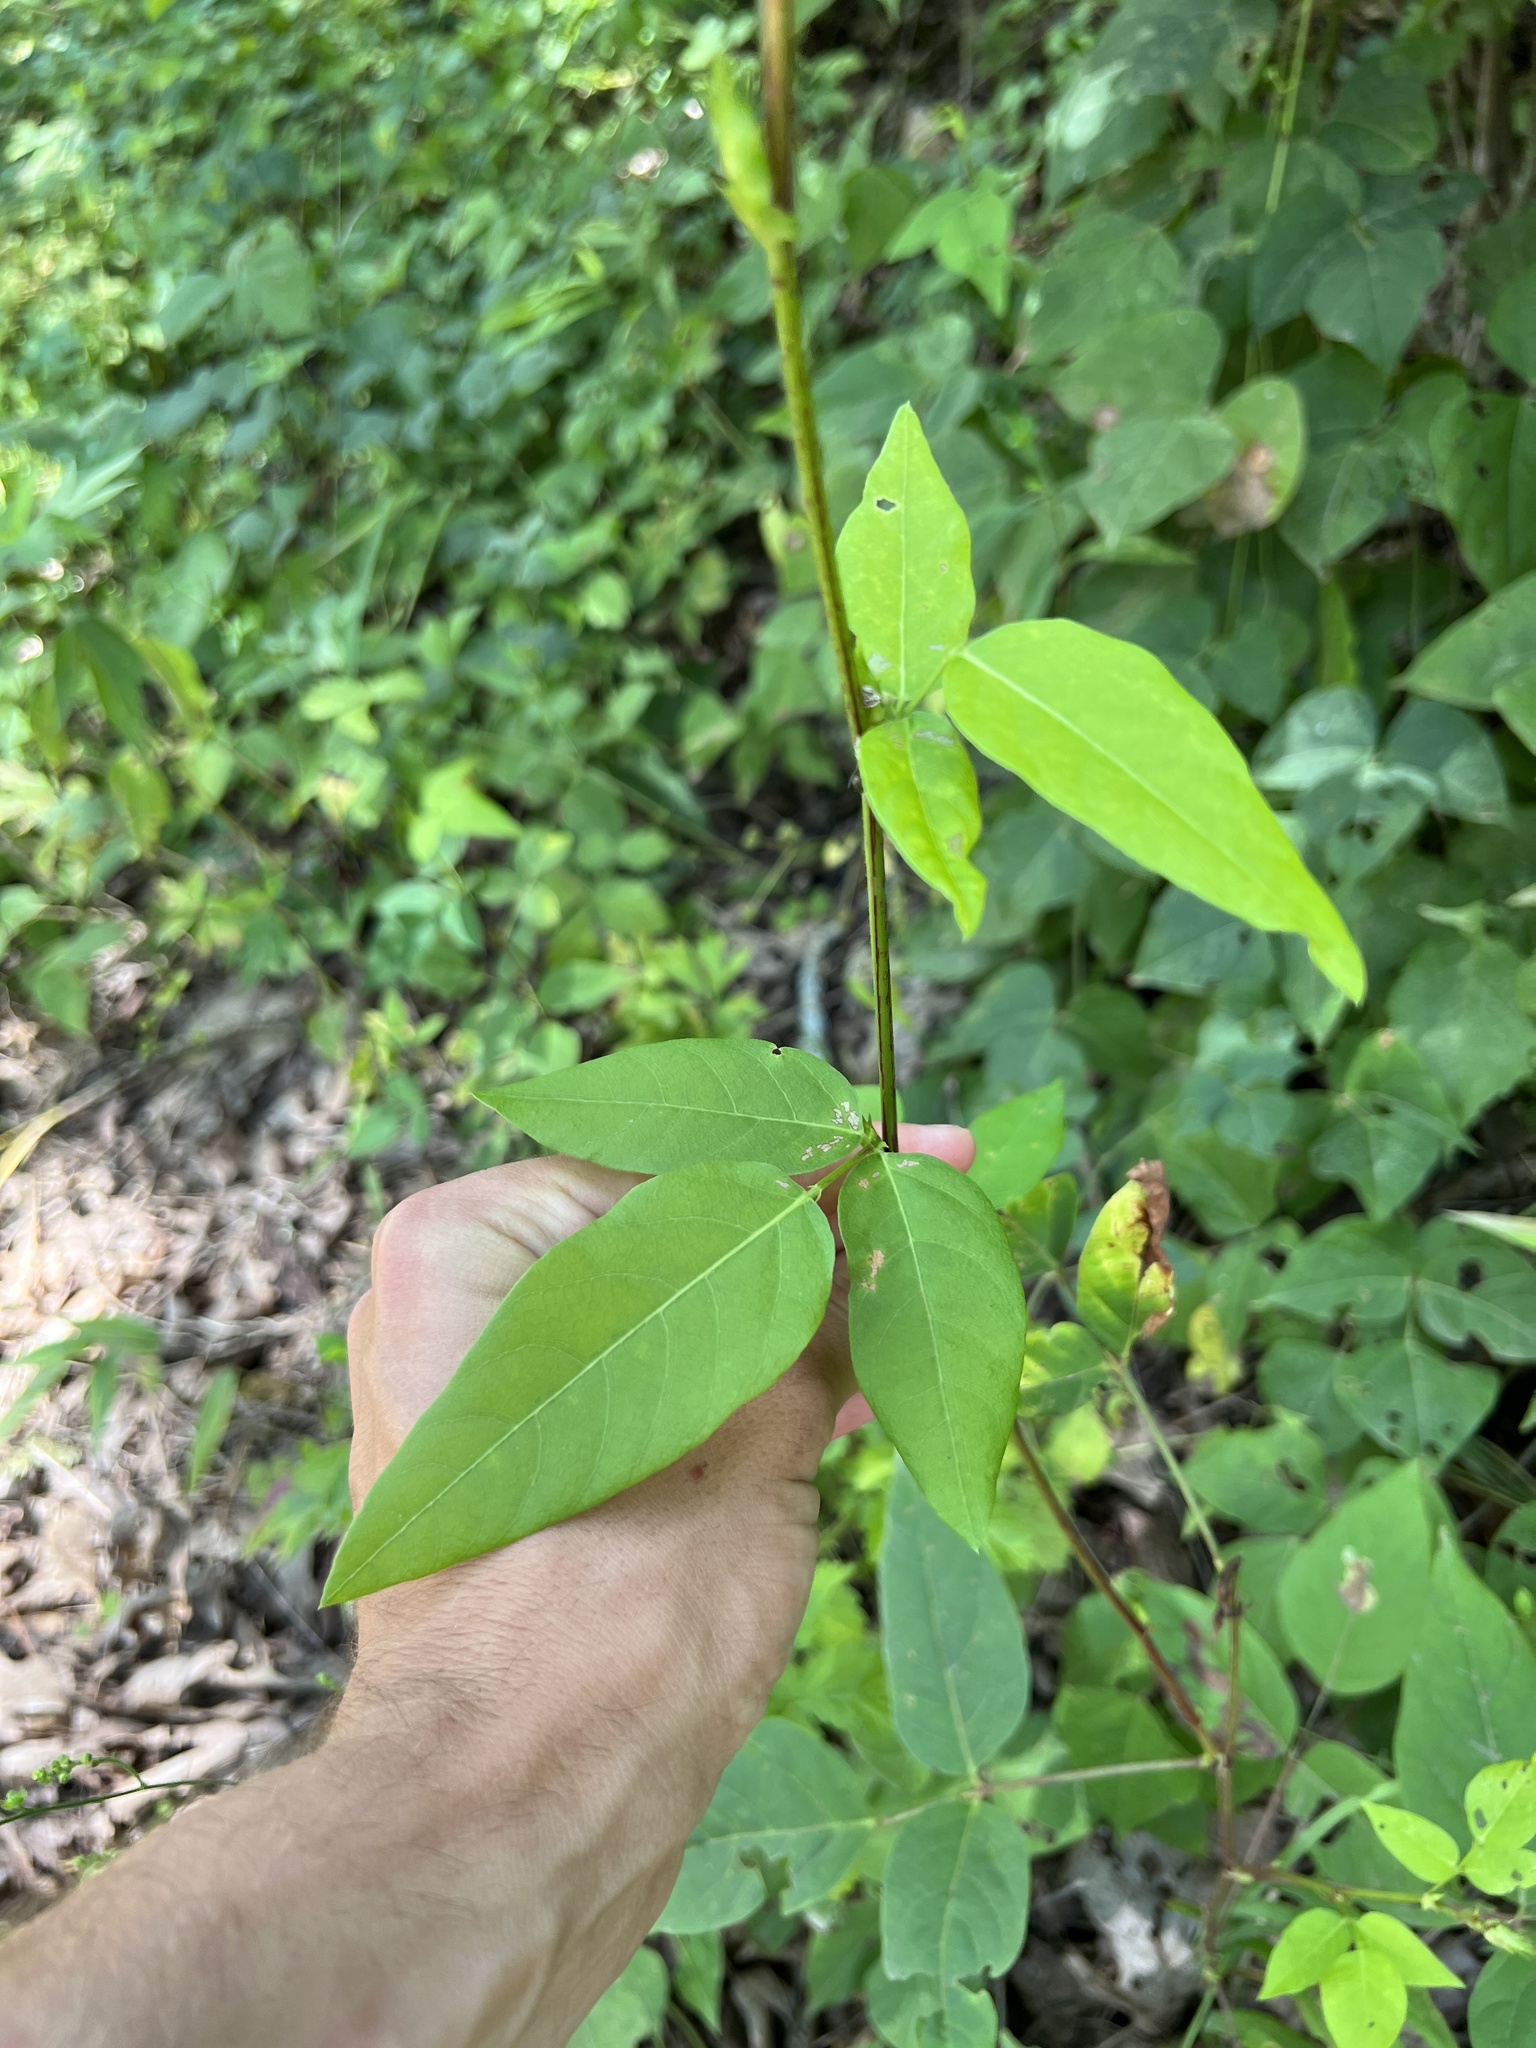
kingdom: Plantae
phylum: Tracheophyta
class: Magnoliopsida
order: Fabales
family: Fabaceae
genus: Desmodium
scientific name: Desmodium cuspidatum
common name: Big tick trefoil
